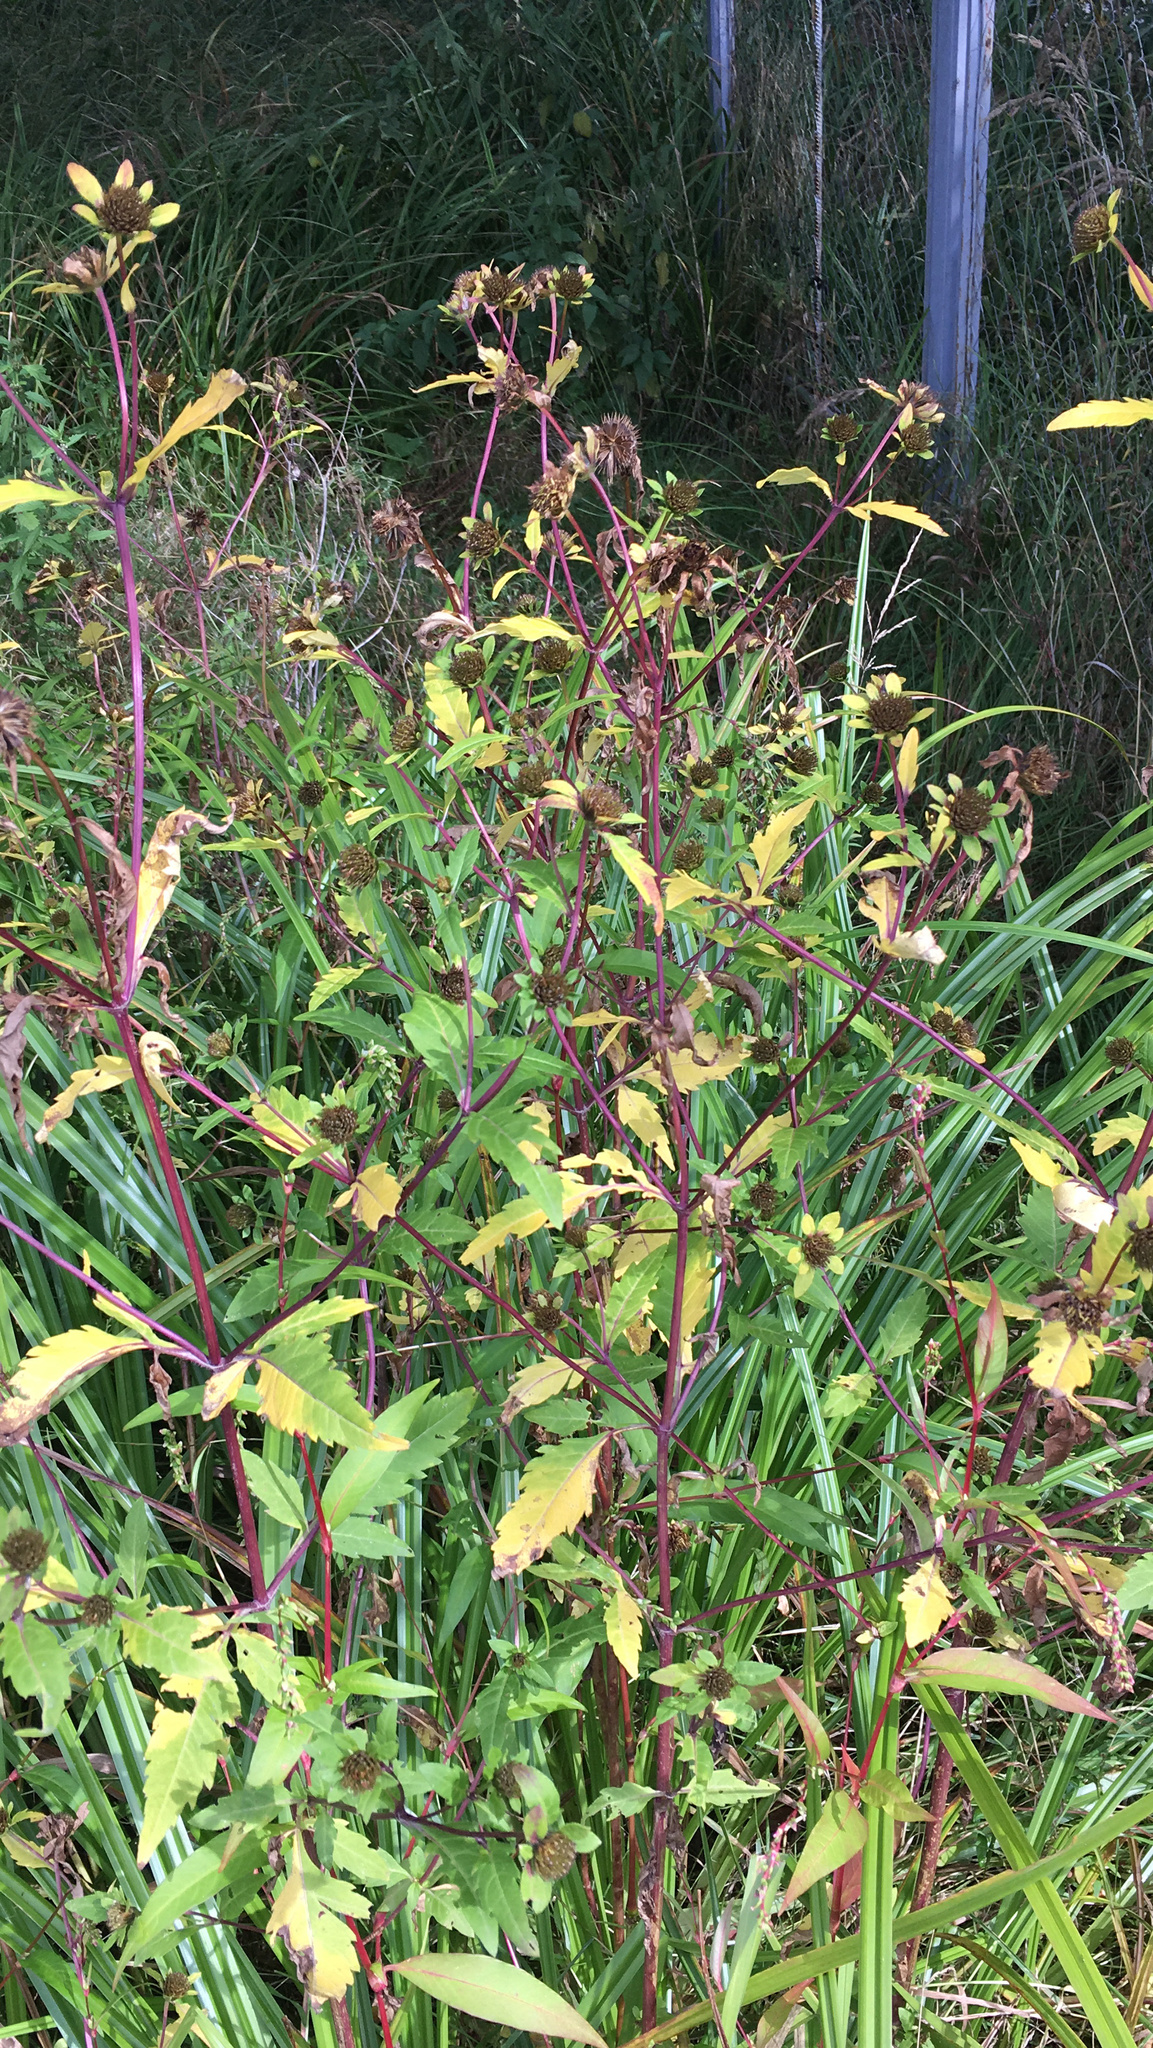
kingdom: Plantae
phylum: Tracheophyta
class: Magnoliopsida
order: Asterales
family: Asteraceae
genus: Bidens
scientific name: Bidens tripartita
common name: Trifid bur-marigold
